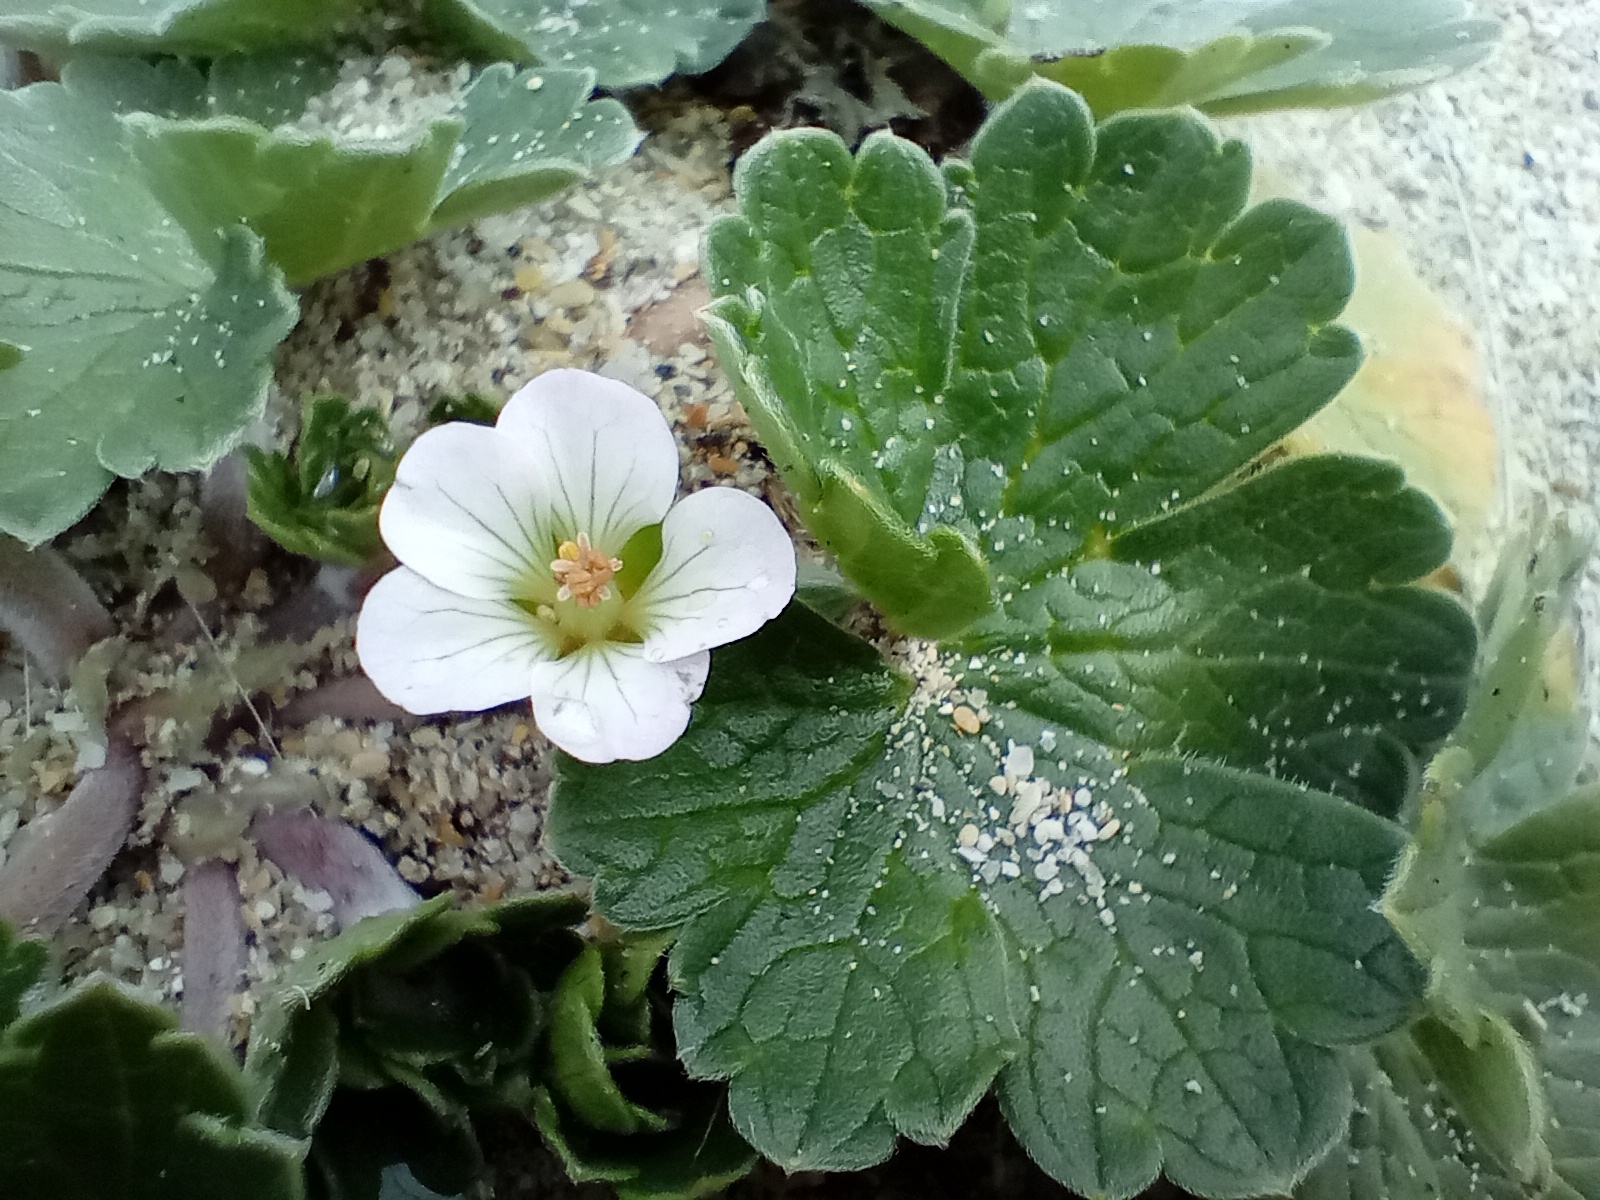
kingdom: Plantae
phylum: Tracheophyta
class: Magnoliopsida
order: Geraniales
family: Geraniaceae
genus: Geranium
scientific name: Geranium traversii
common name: Cranesbill
